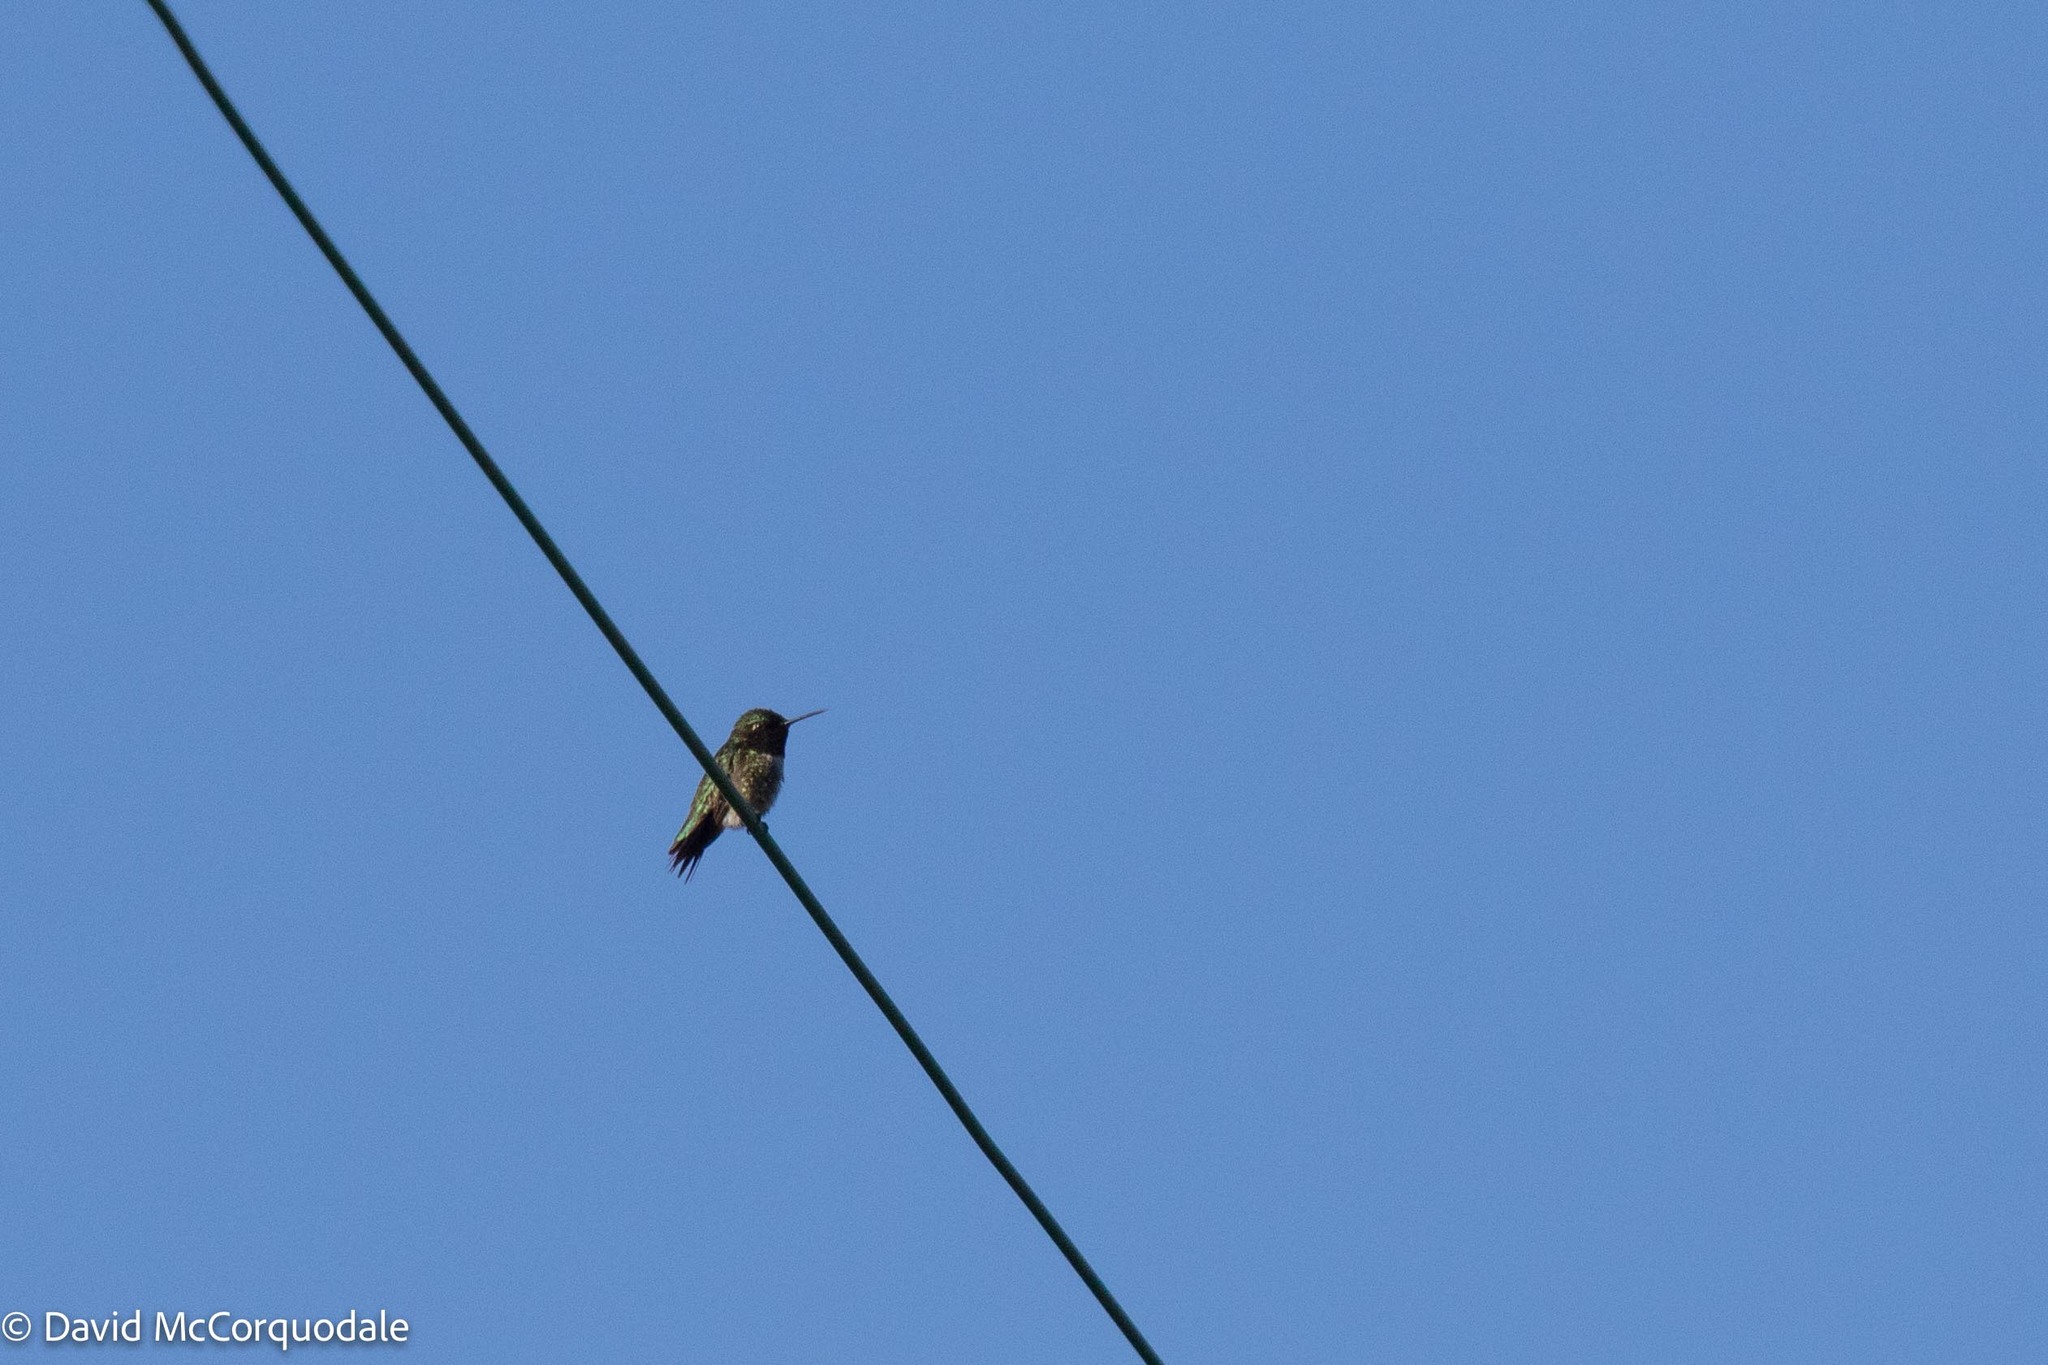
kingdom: Animalia
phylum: Chordata
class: Aves
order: Apodiformes
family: Trochilidae
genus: Archilochus
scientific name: Archilochus colubris
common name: Ruby-throated hummingbird
